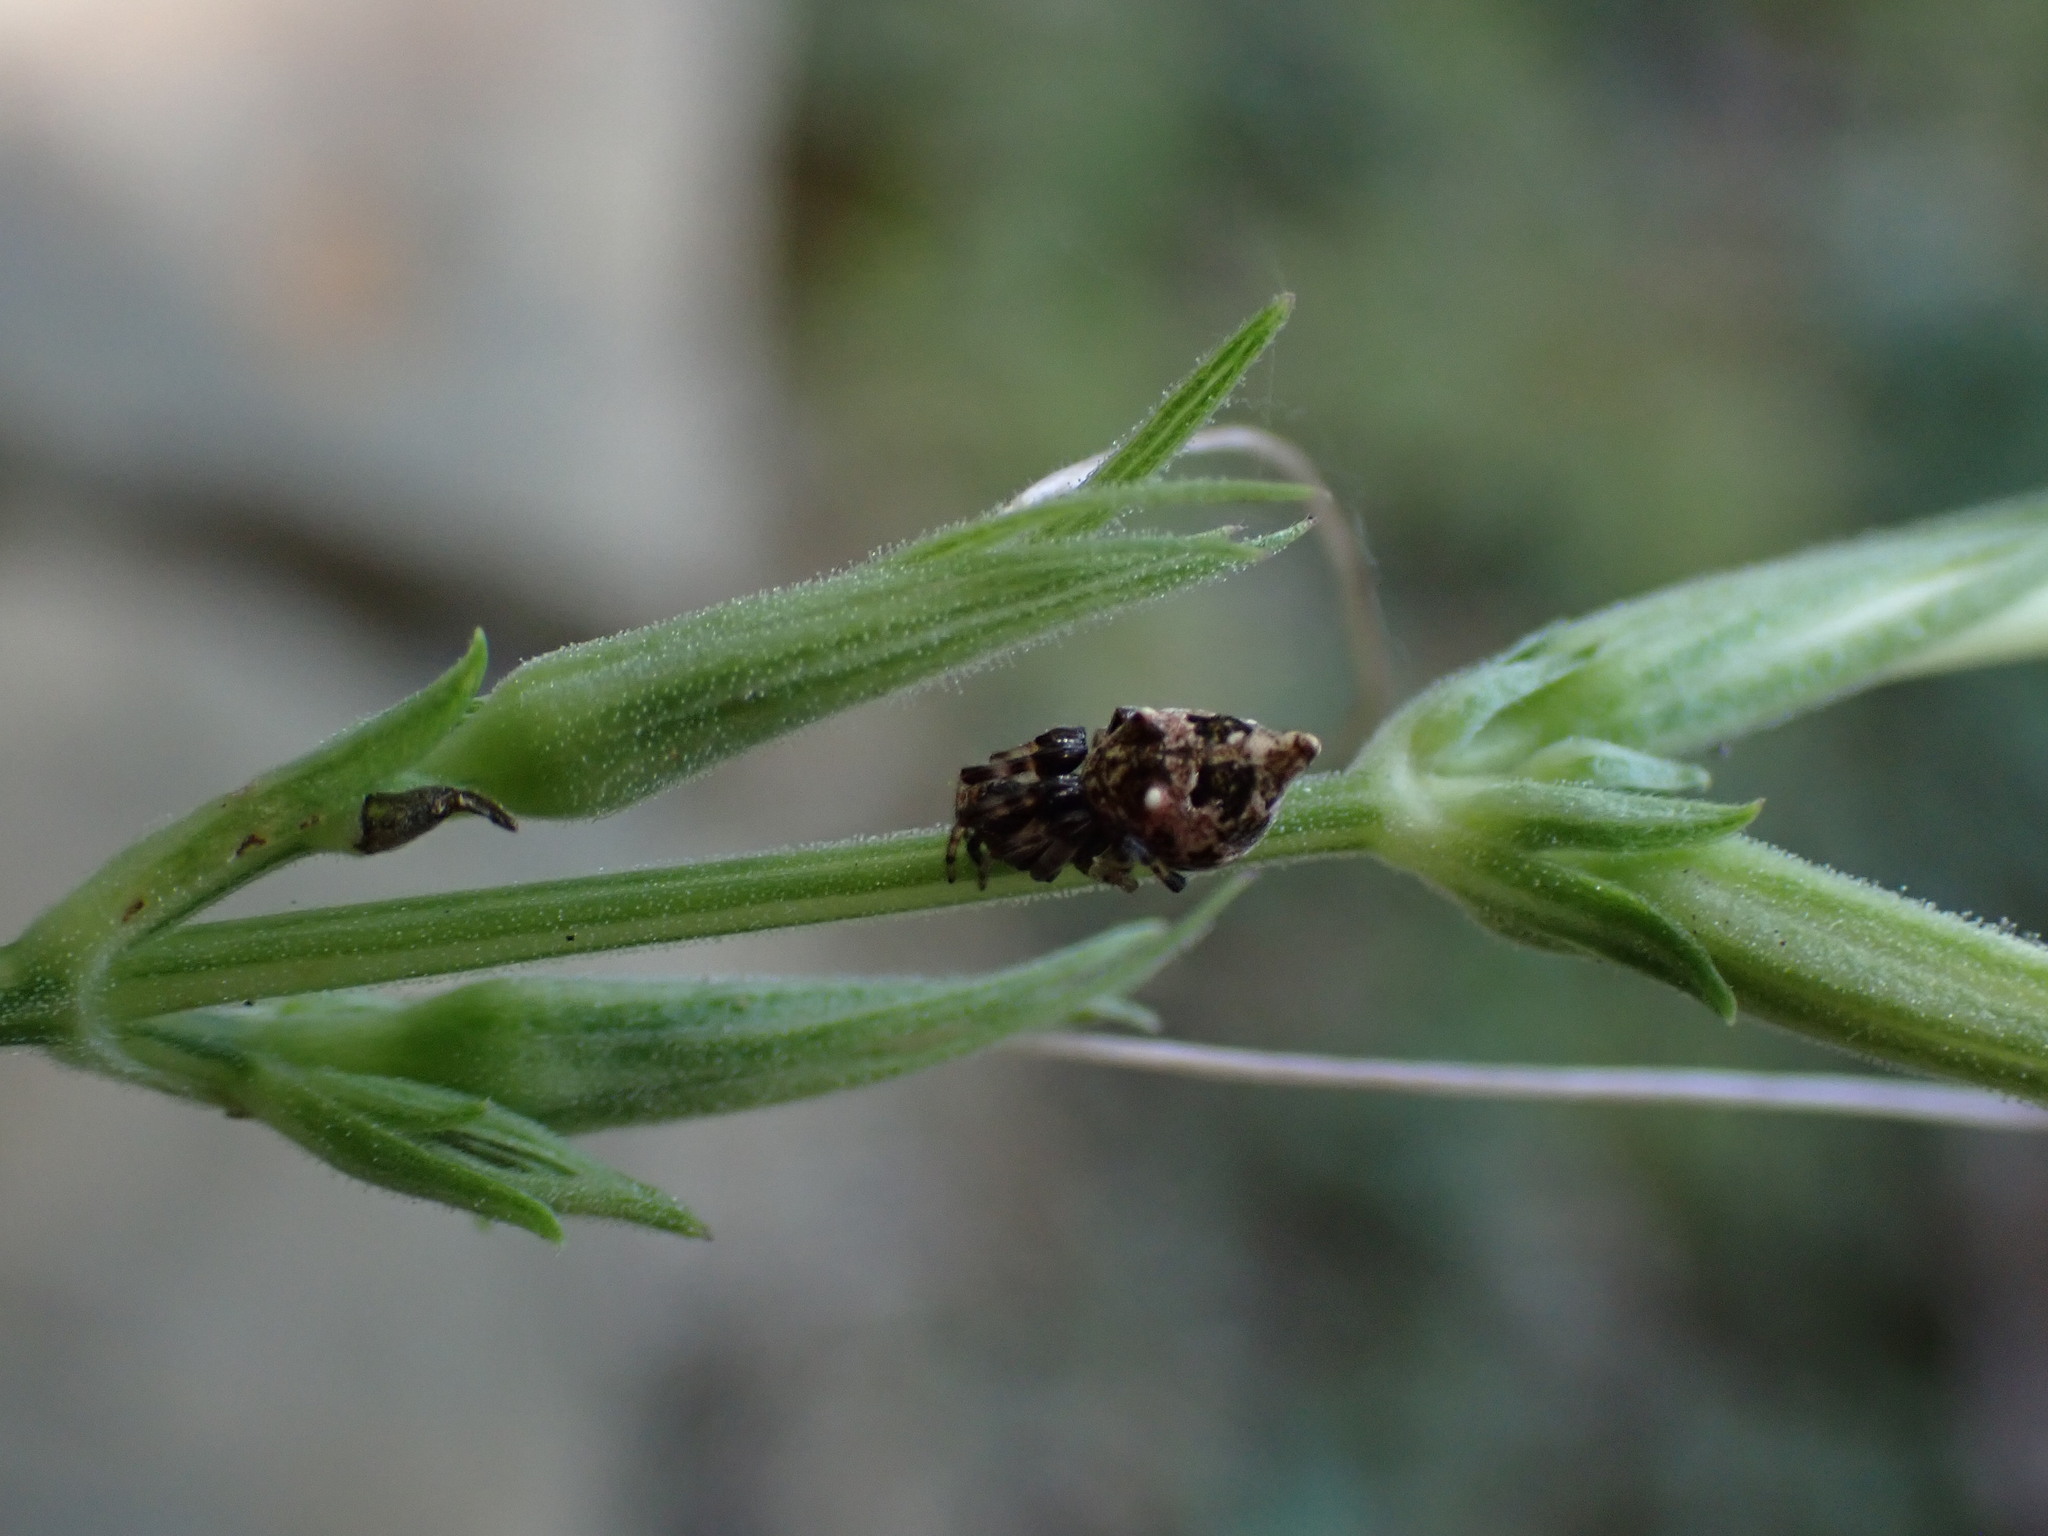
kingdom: Animalia
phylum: Arthropoda
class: Arachnida
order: Araneae
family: Araneidae
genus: Cyclosa
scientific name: Cyclosa turbinata
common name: Orb weavers
